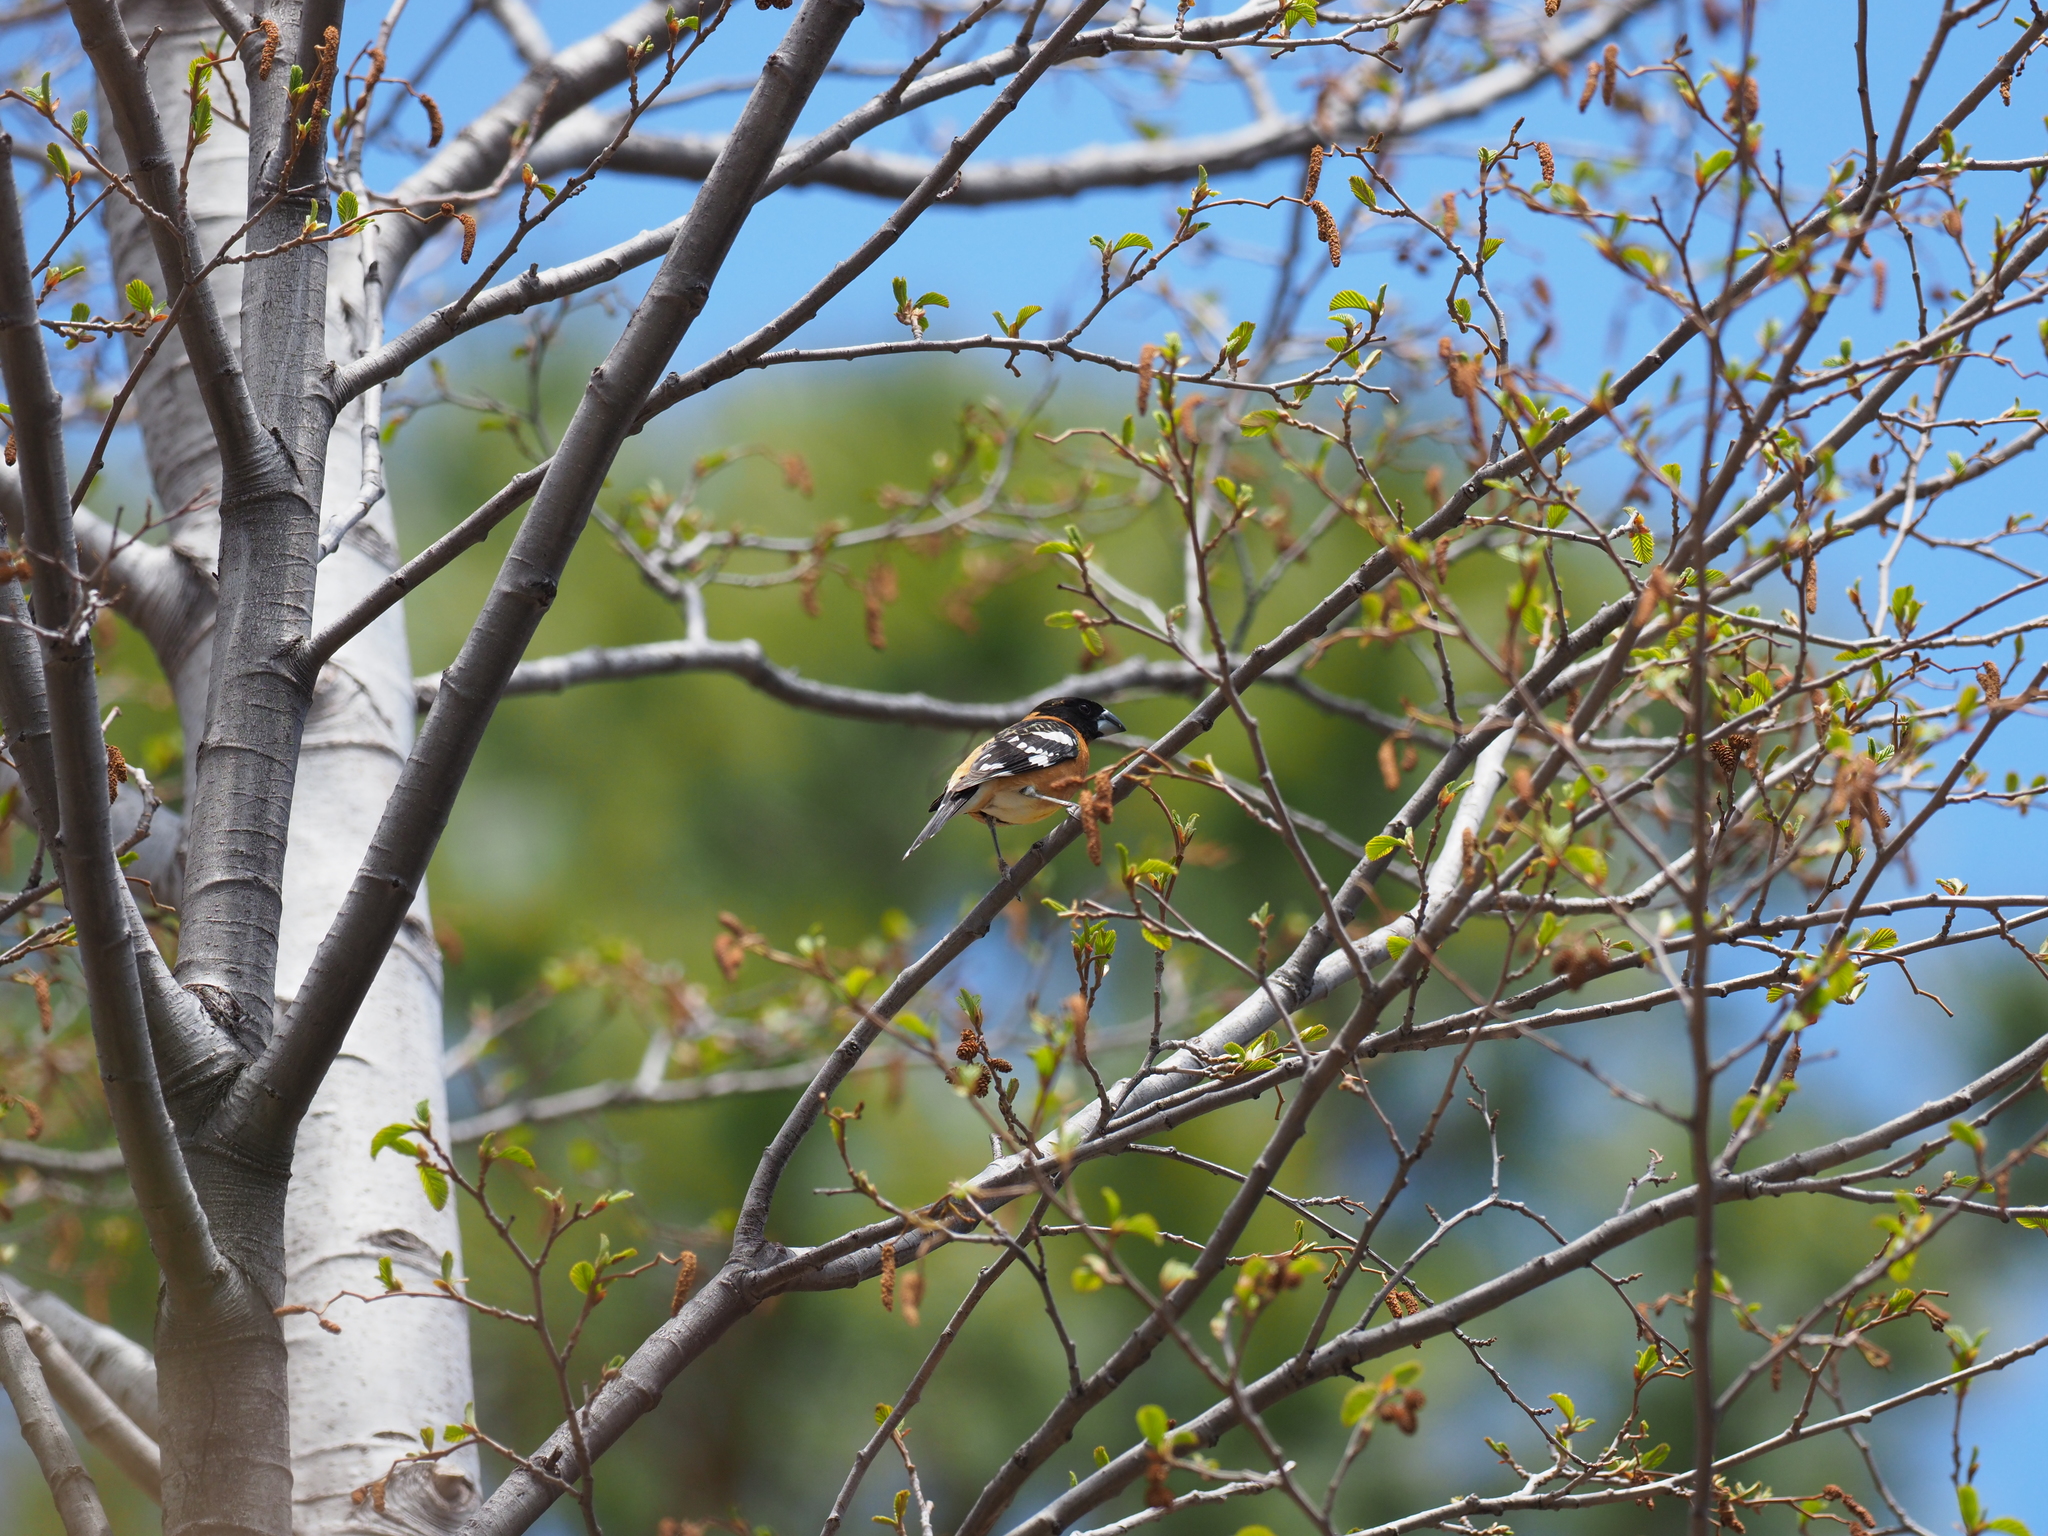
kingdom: Animalia
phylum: Chordata
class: Aves
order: Passeriformes
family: Cardinalidae
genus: Pheucticus
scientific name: Pheucticus melanocephalus
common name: Black-headed grosbeak
